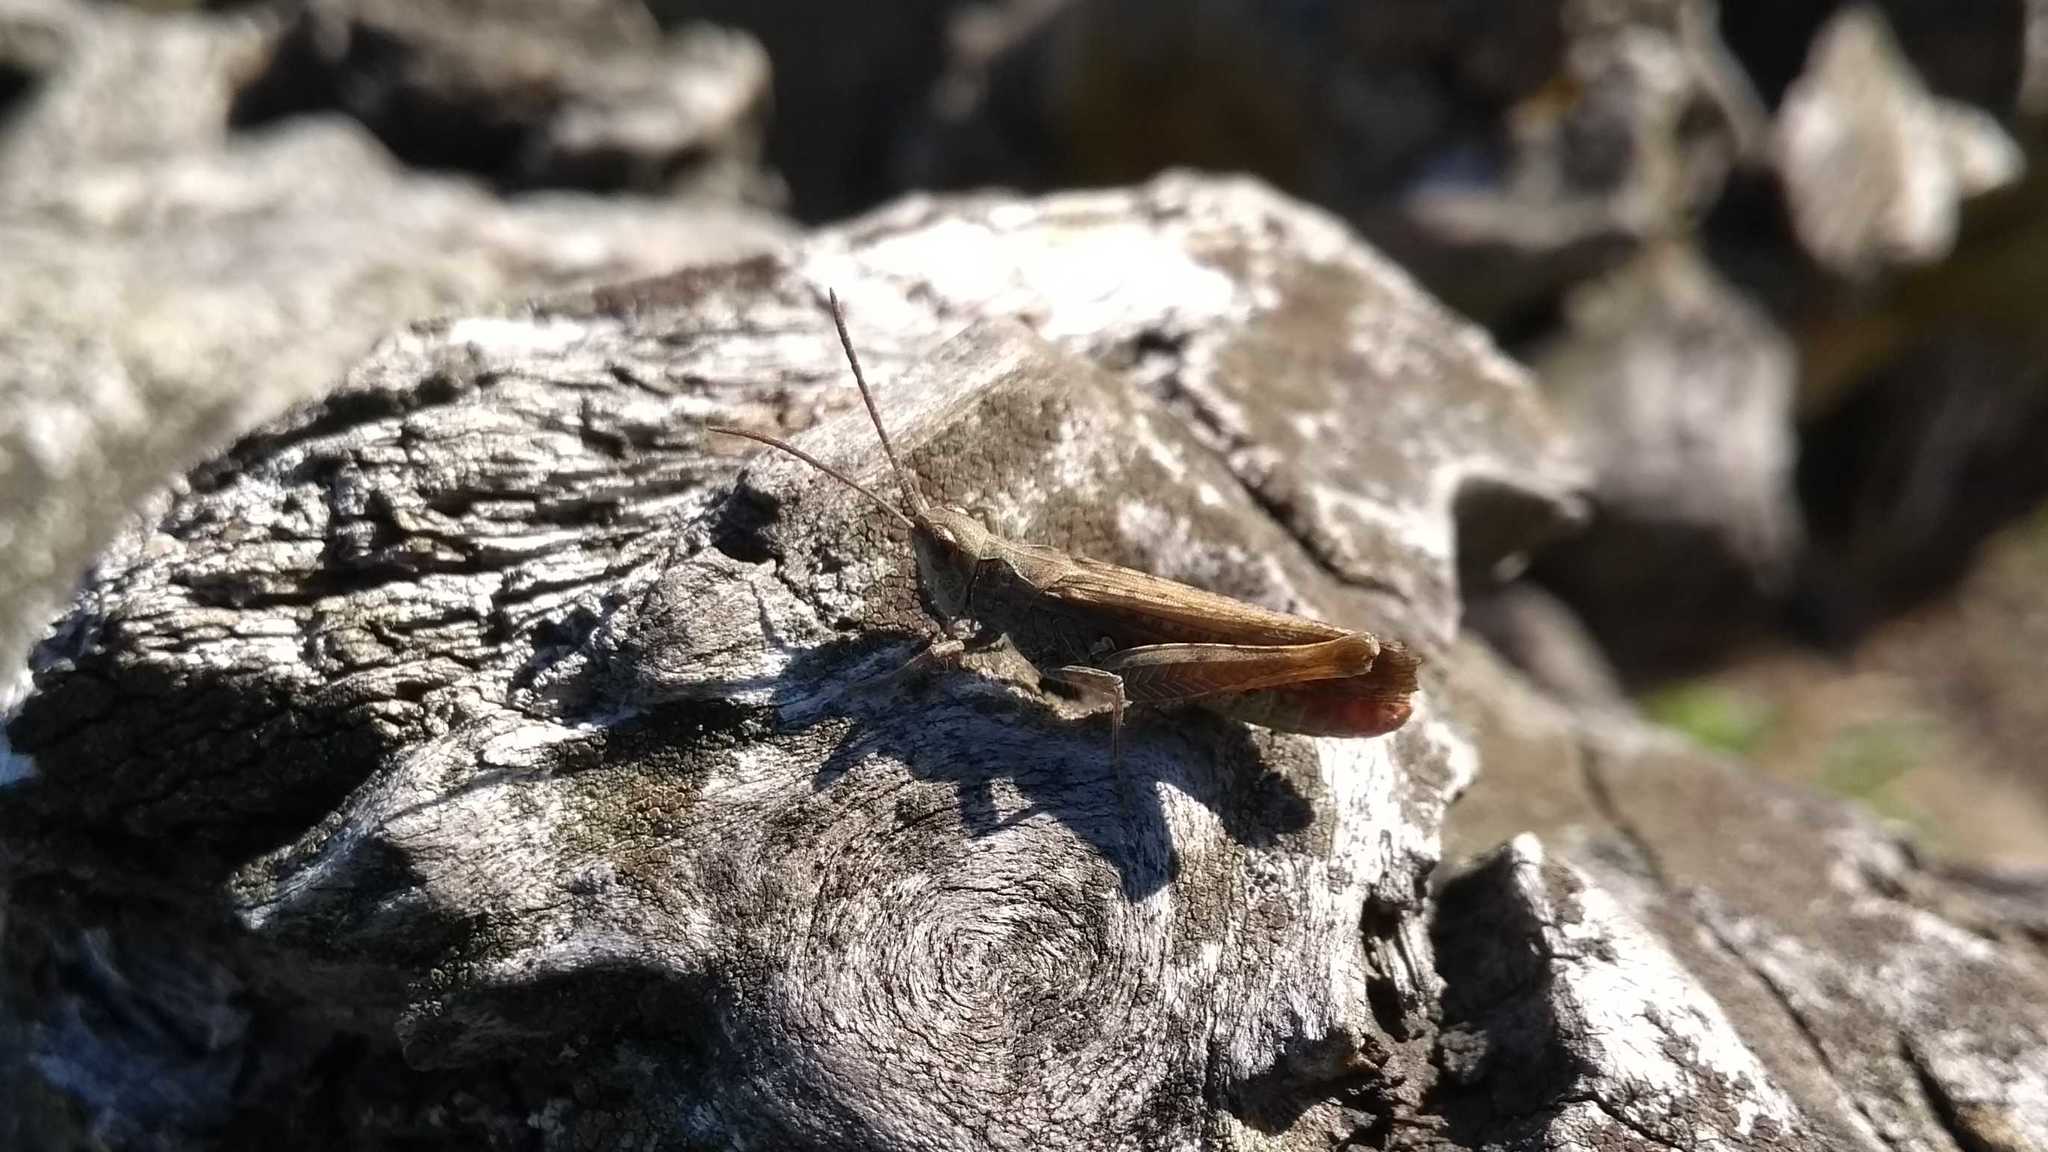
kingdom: Animalia
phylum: Arthropoda
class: Insecta
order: Orthoptera
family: Acrididae
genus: Glyptobothrus
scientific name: Glyptobothrus
